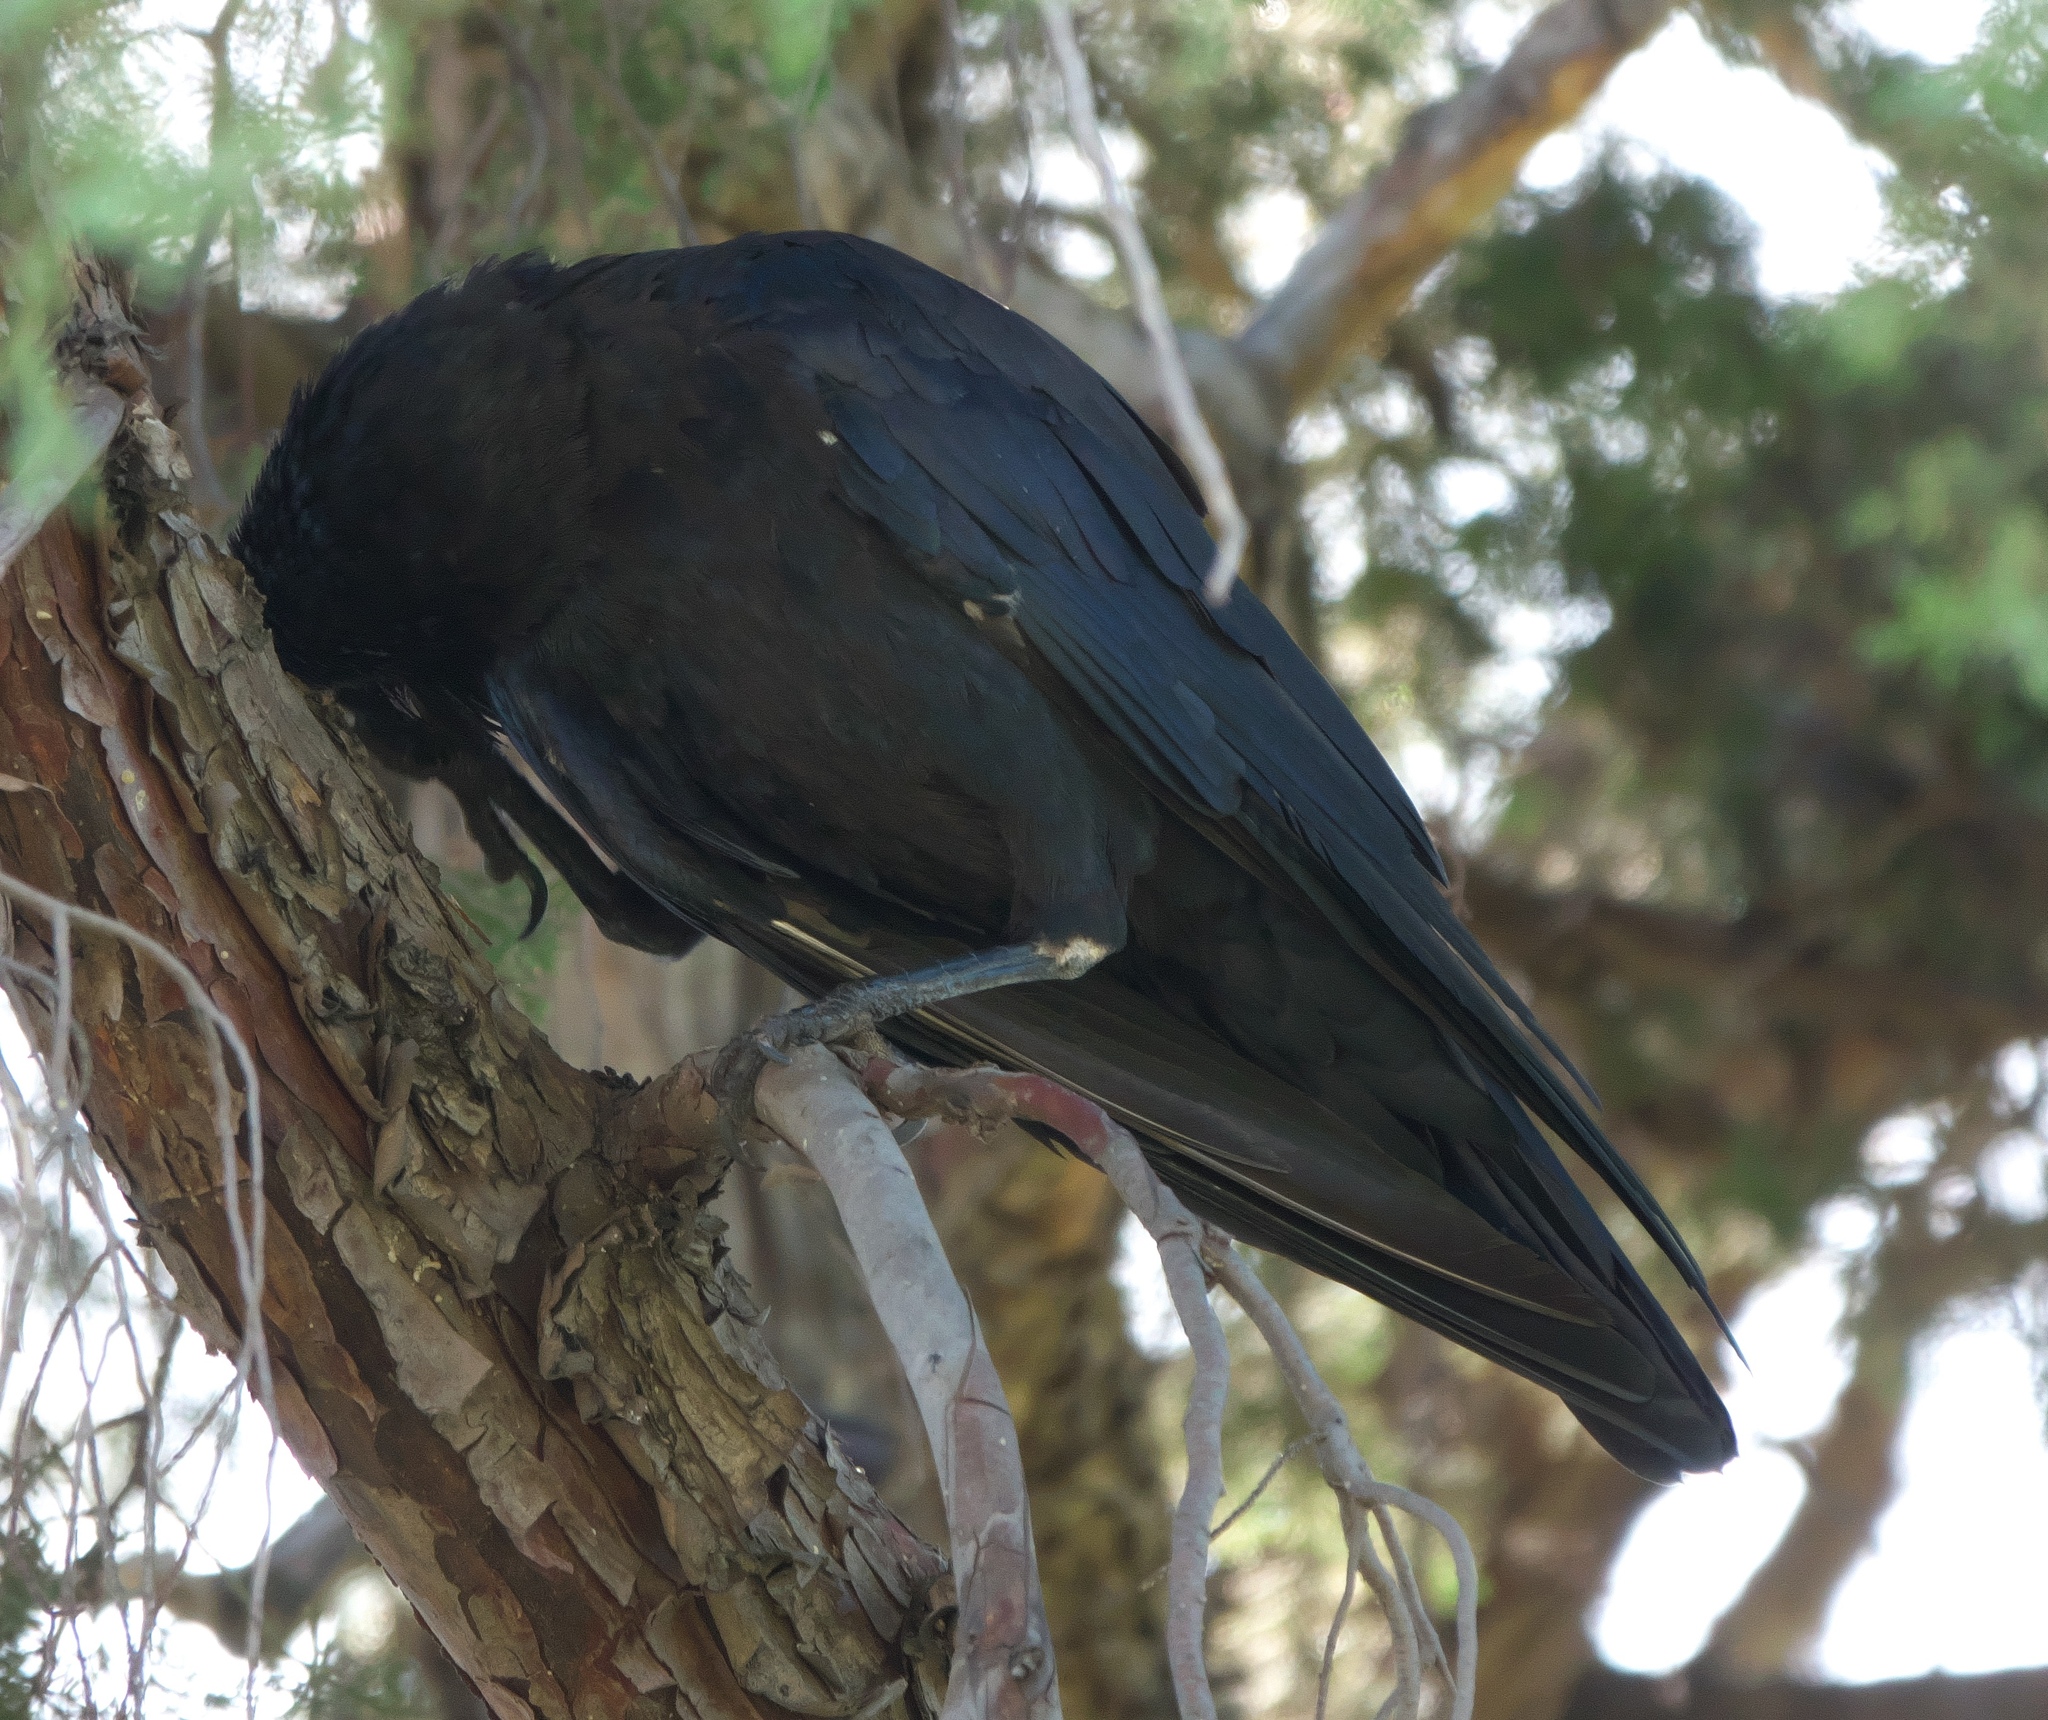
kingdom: Animalia
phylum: Chordata
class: Aves
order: Passeriformes
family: Corvidae
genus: Corvus
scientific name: Corvus coronoides
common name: Australian raven
